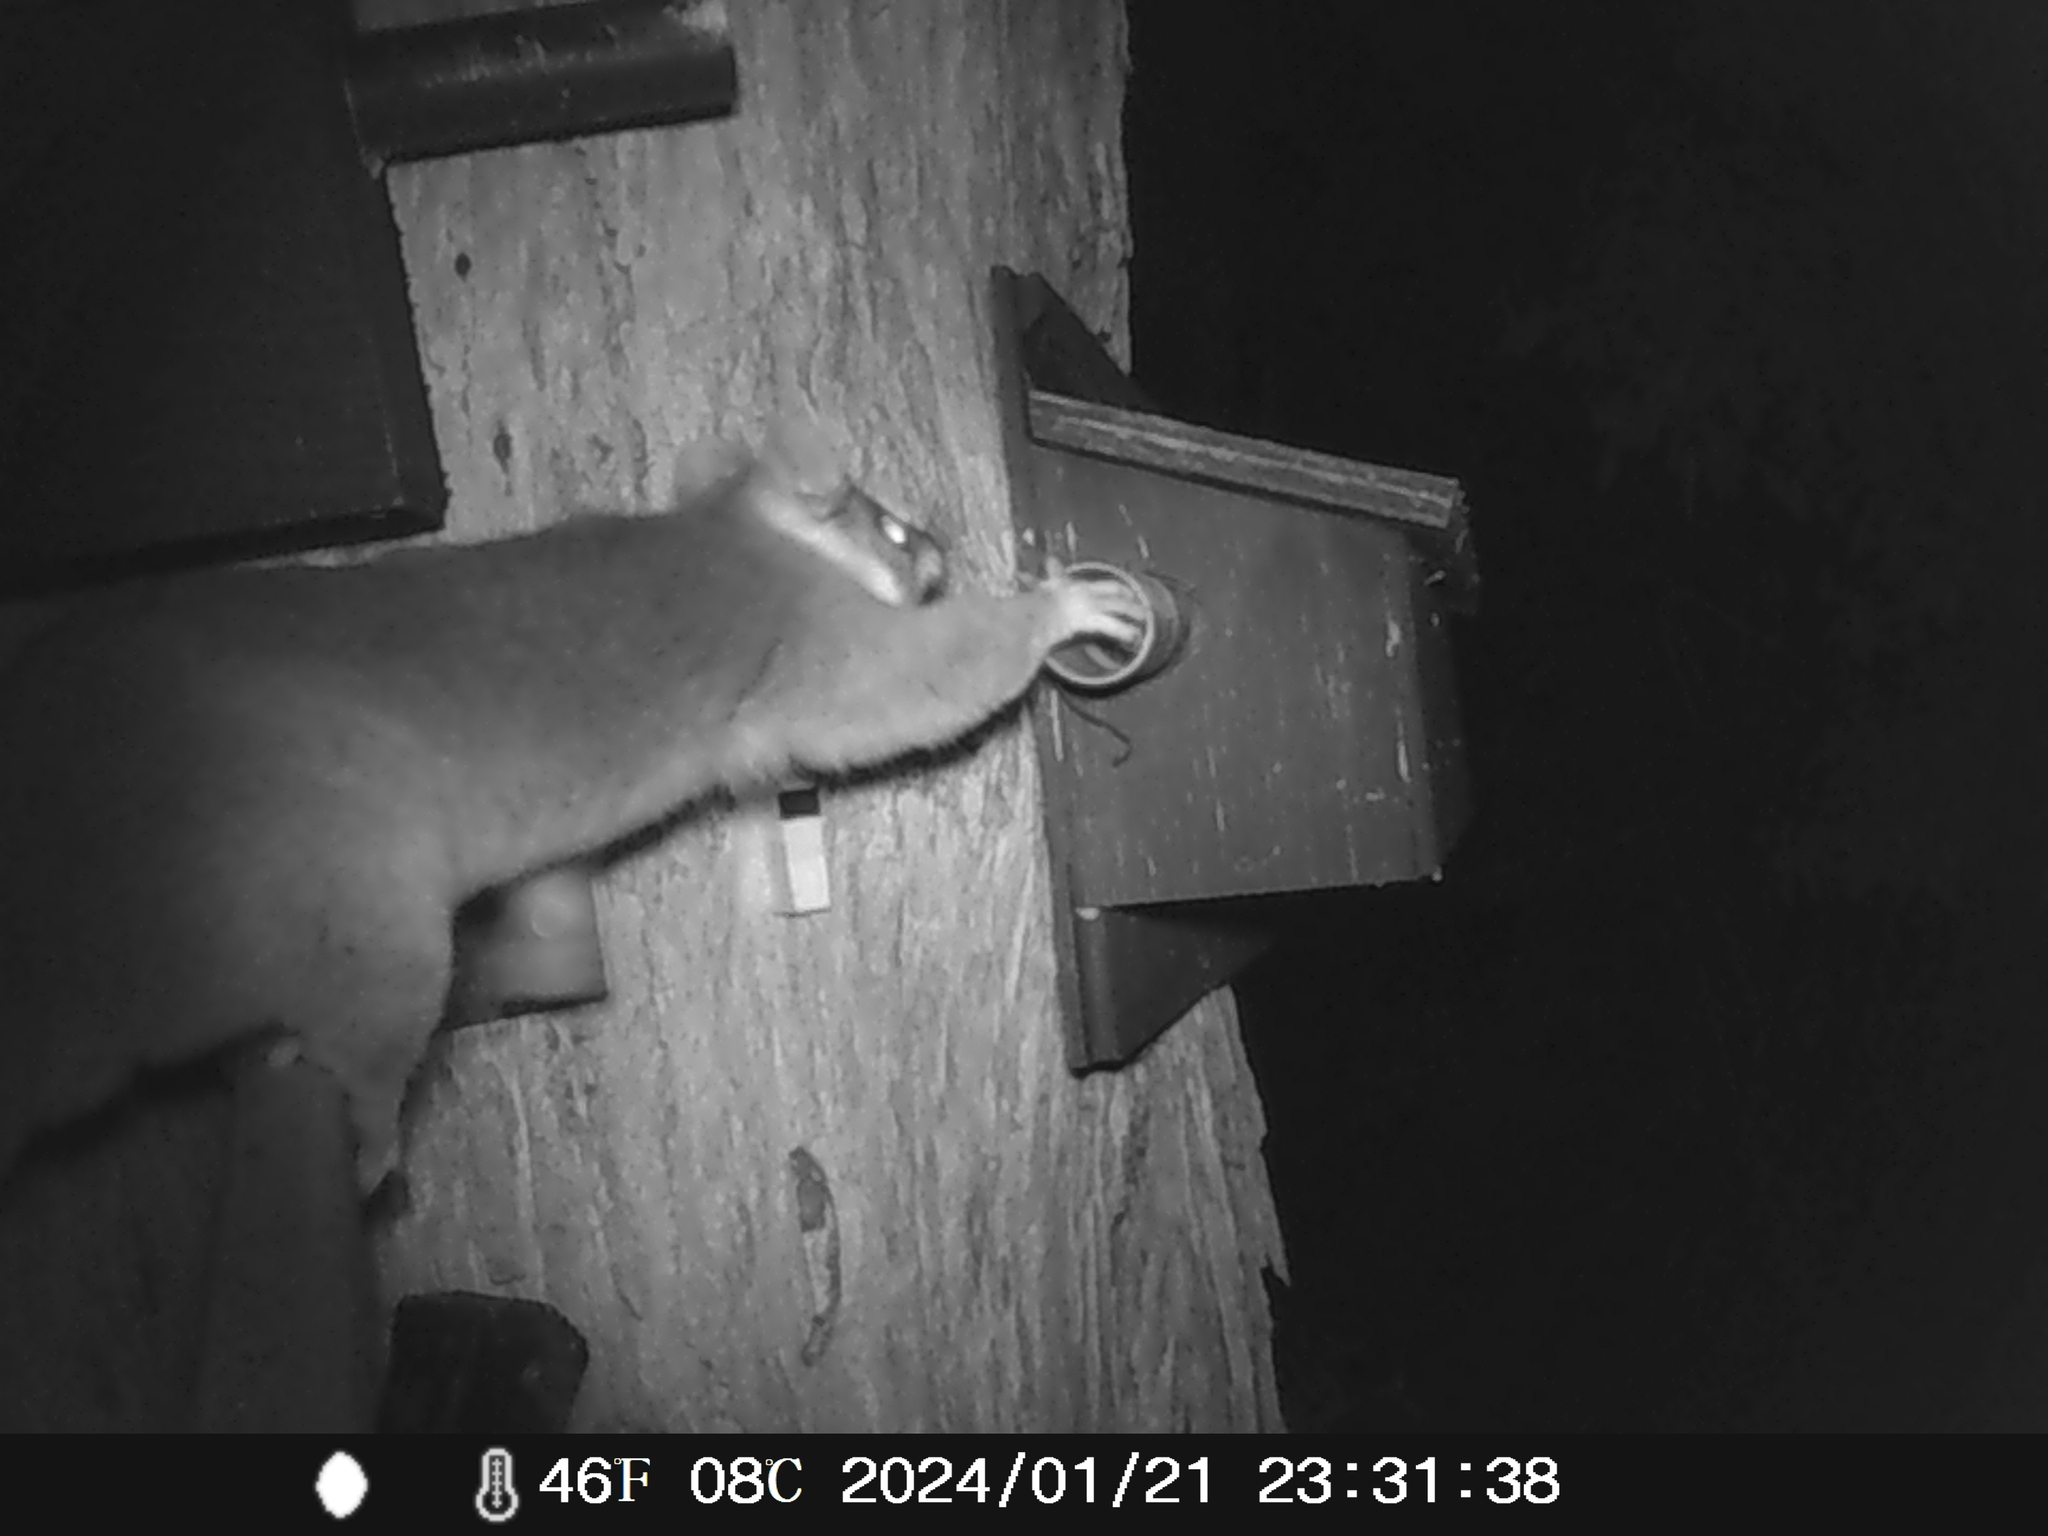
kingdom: Animalia
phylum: Chordata
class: Mammalia
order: Diprotodontia
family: Pseudocheiridae
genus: Pseudocheirus
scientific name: Pseudocheirus peregrinus
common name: Common ringtail possum
